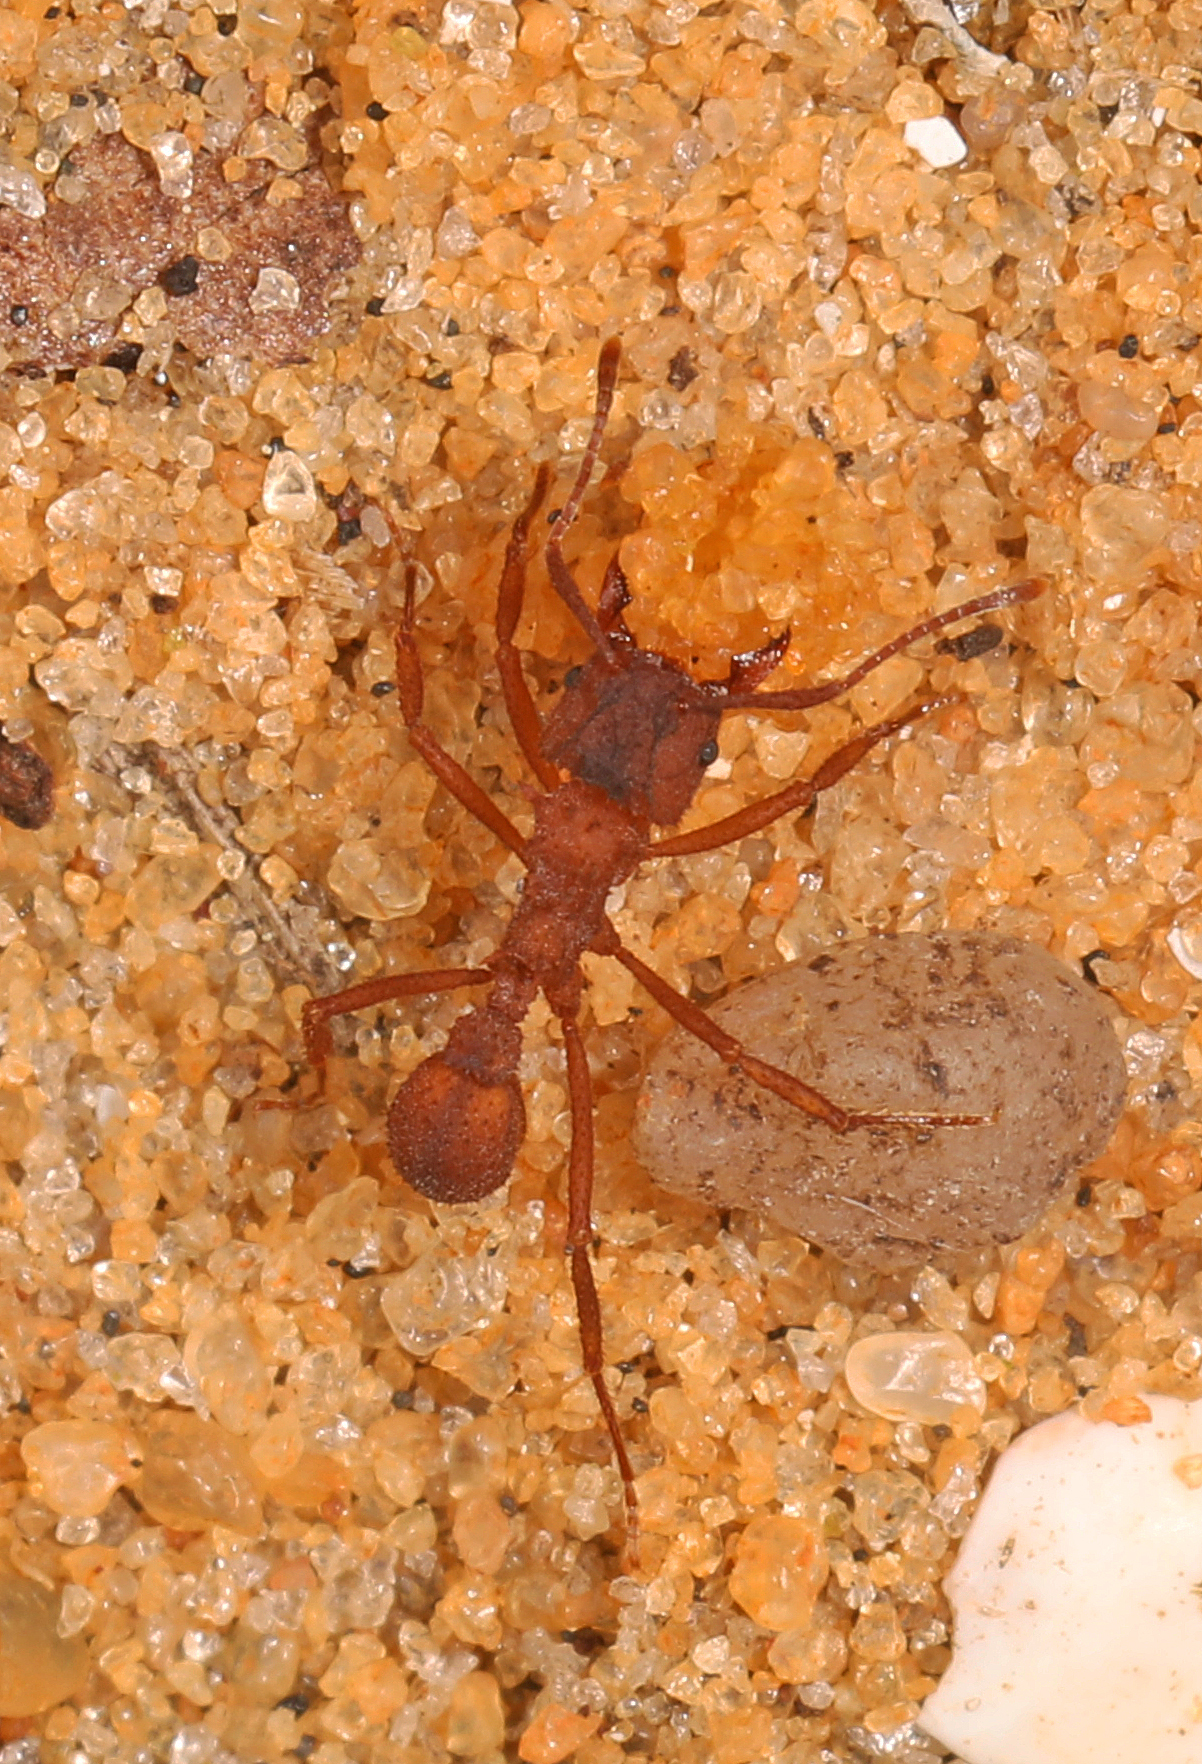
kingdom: Animalia
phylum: Arthropoda
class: Insecta
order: Hymenoptera
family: Formicidae
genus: Trachymyrmex
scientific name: Trachymyrmex septentrionalis
